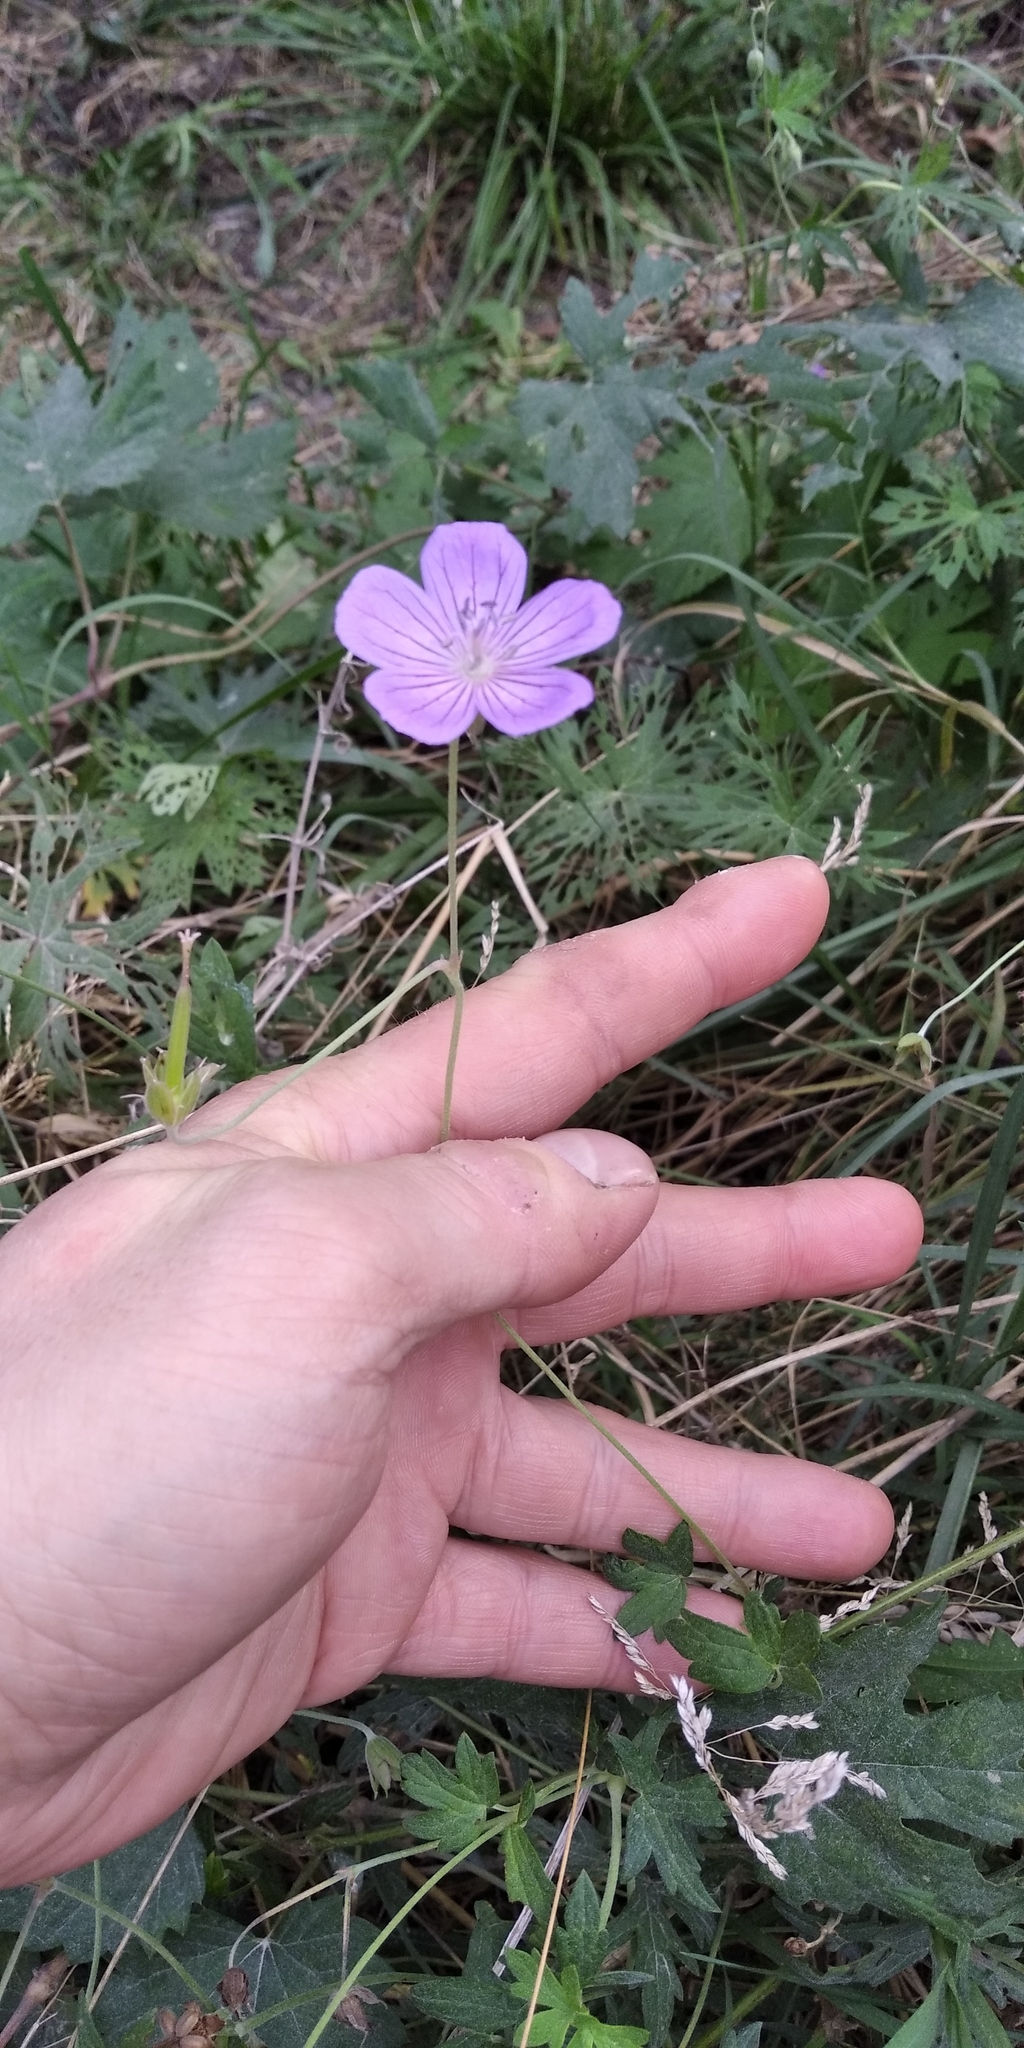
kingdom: Plantae
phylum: Tracheophyta
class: Magnoliopsida
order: Geraniales
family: Geraniaceae
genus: Geranium
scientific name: Geranium collinum
